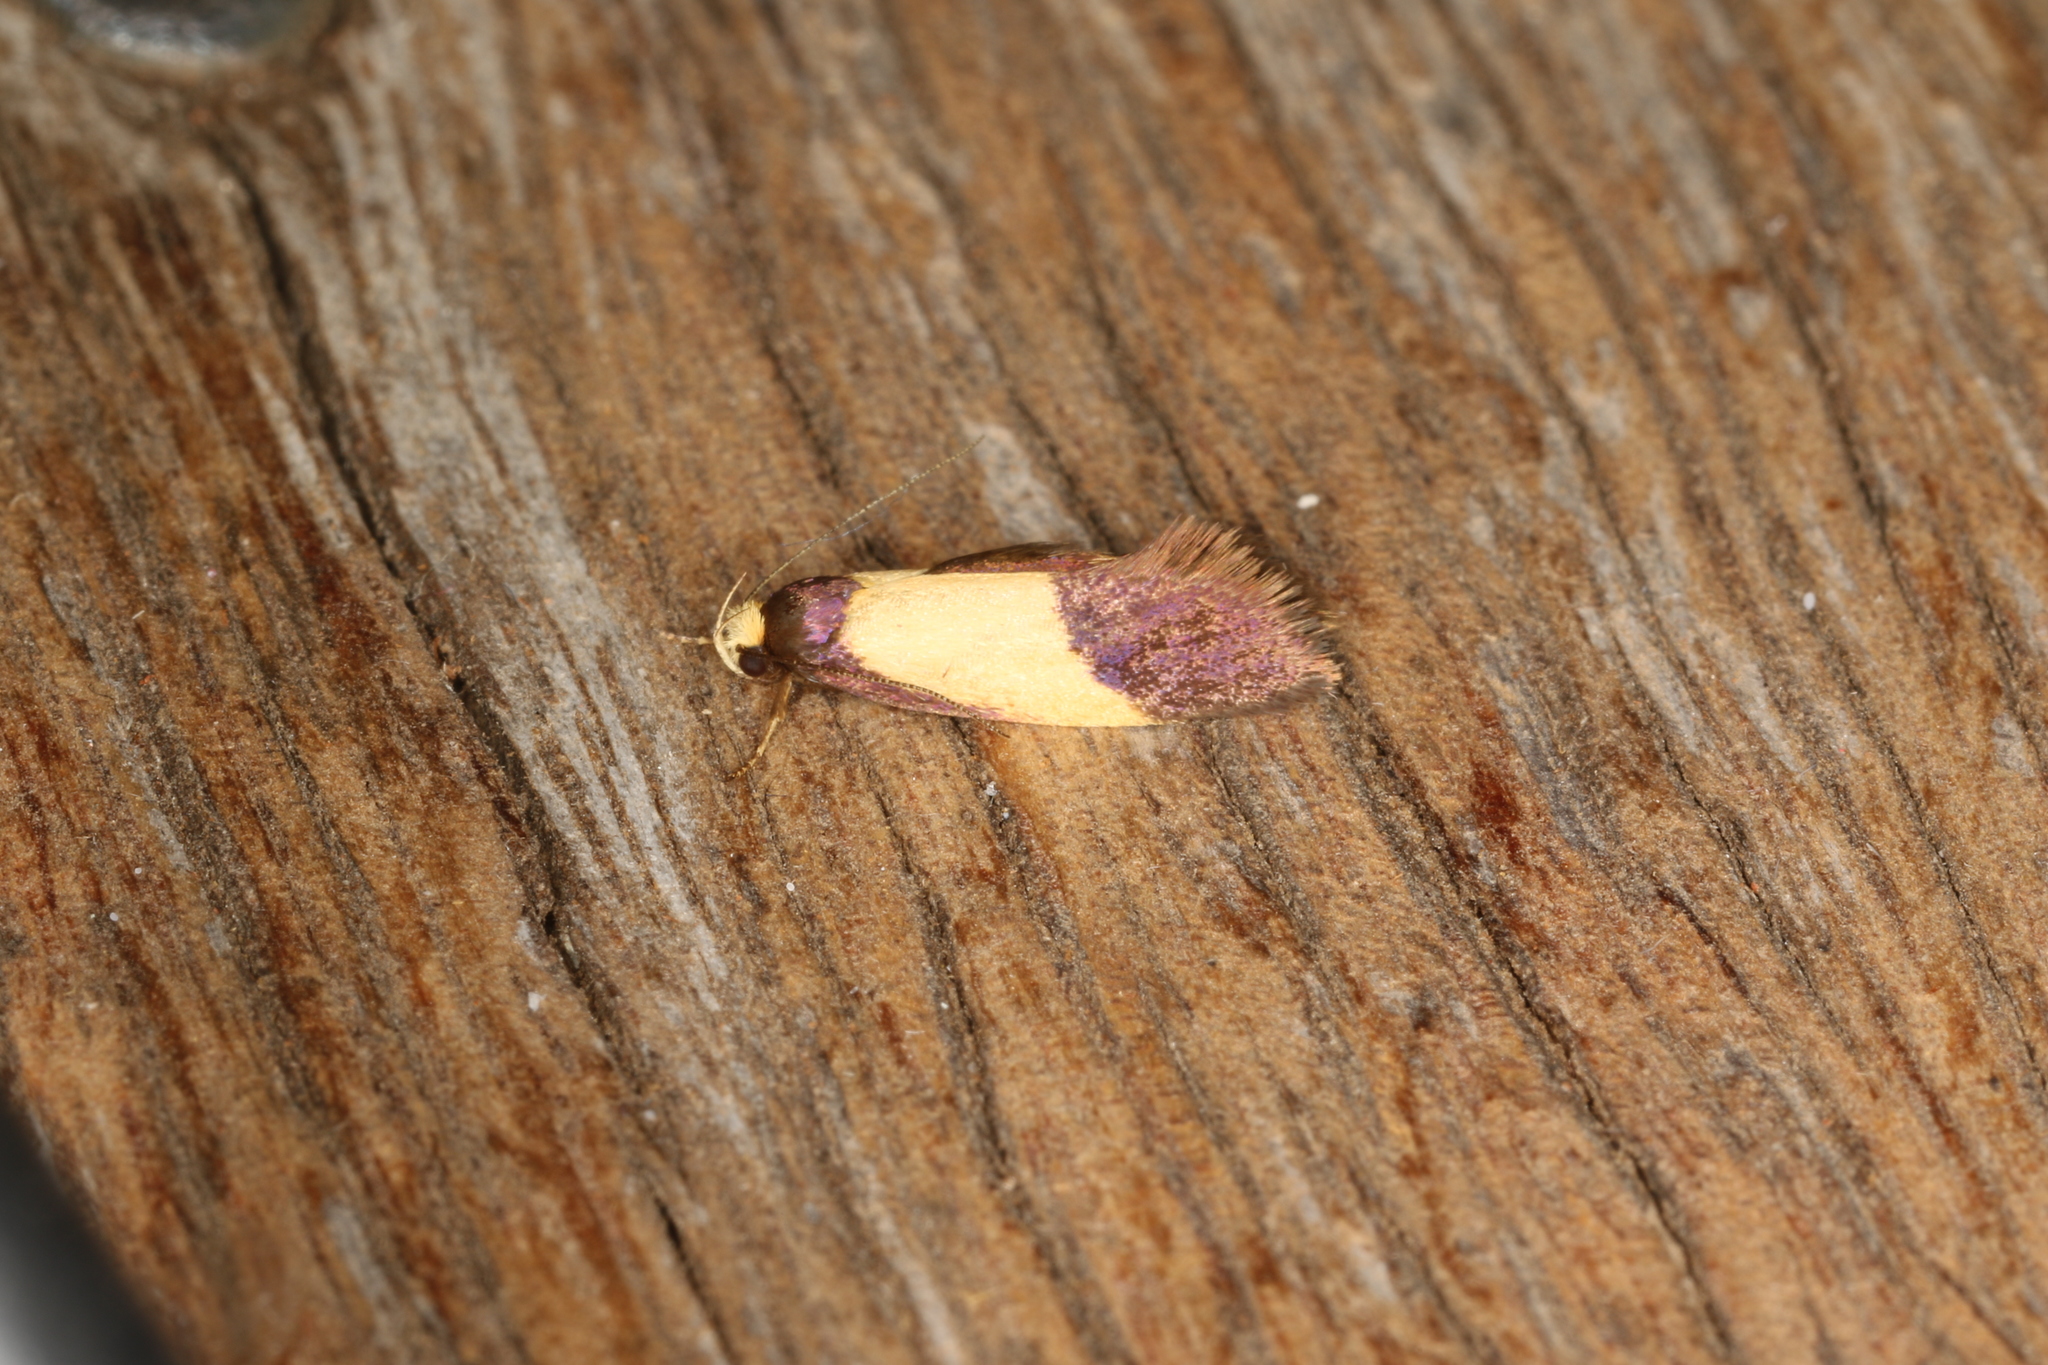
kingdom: Animalia
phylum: Arthropoda
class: Insecta
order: Lepidoptera
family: Oecophoridae
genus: Eulechria
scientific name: Eulechria heliophanes
